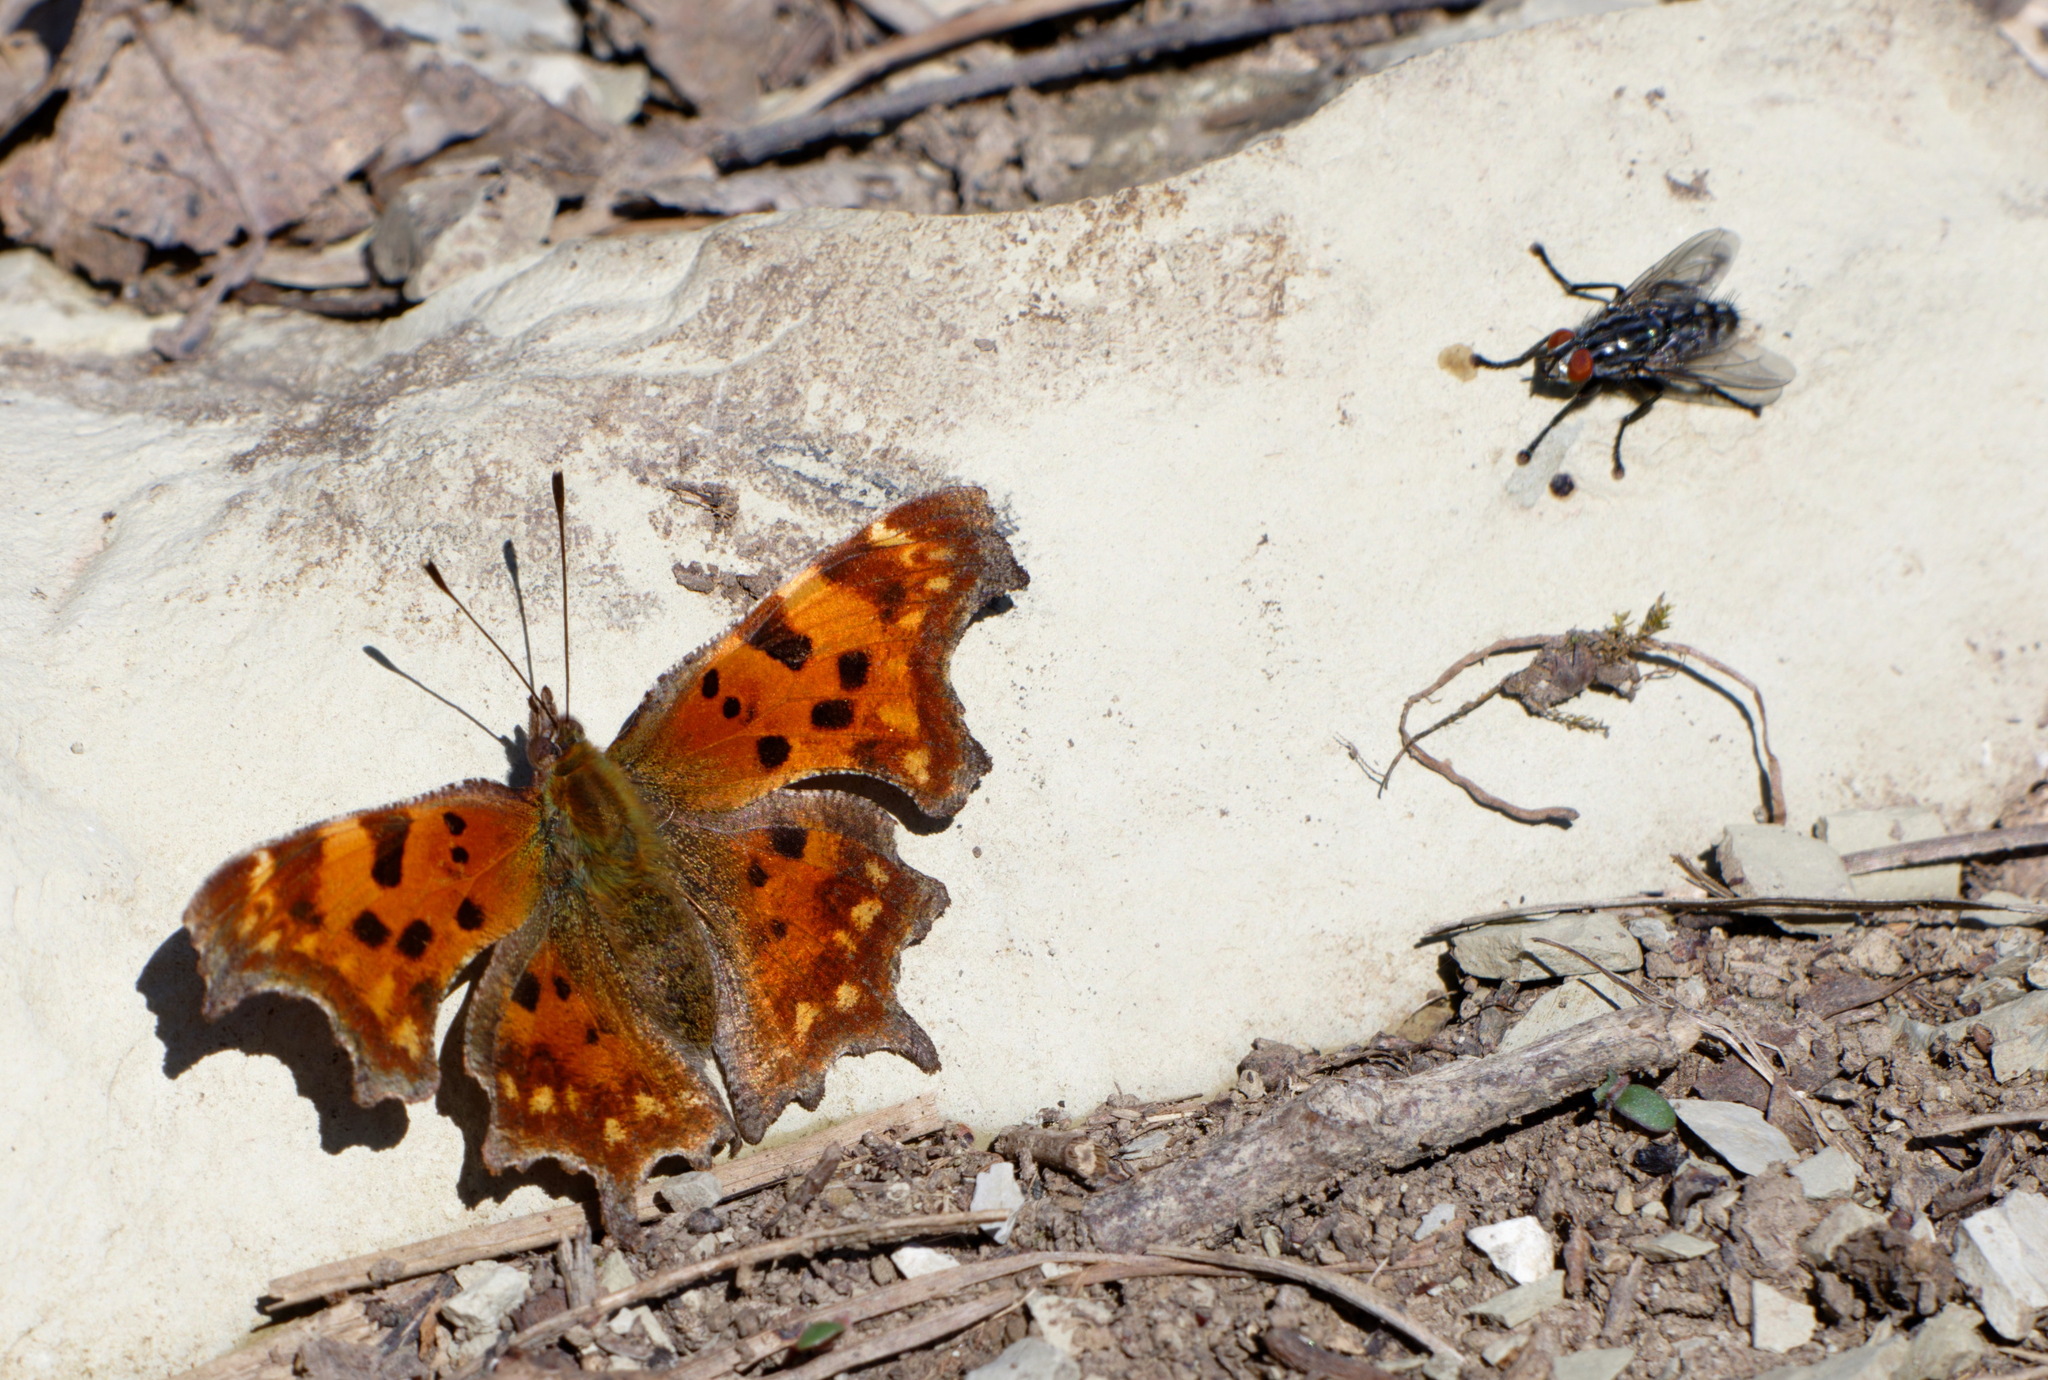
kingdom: Animalia
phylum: Arthropoda
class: Insecta
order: Lepidoptera
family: Nymphalidae
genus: Polygonia
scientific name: Polygonia c-album
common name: Comma
